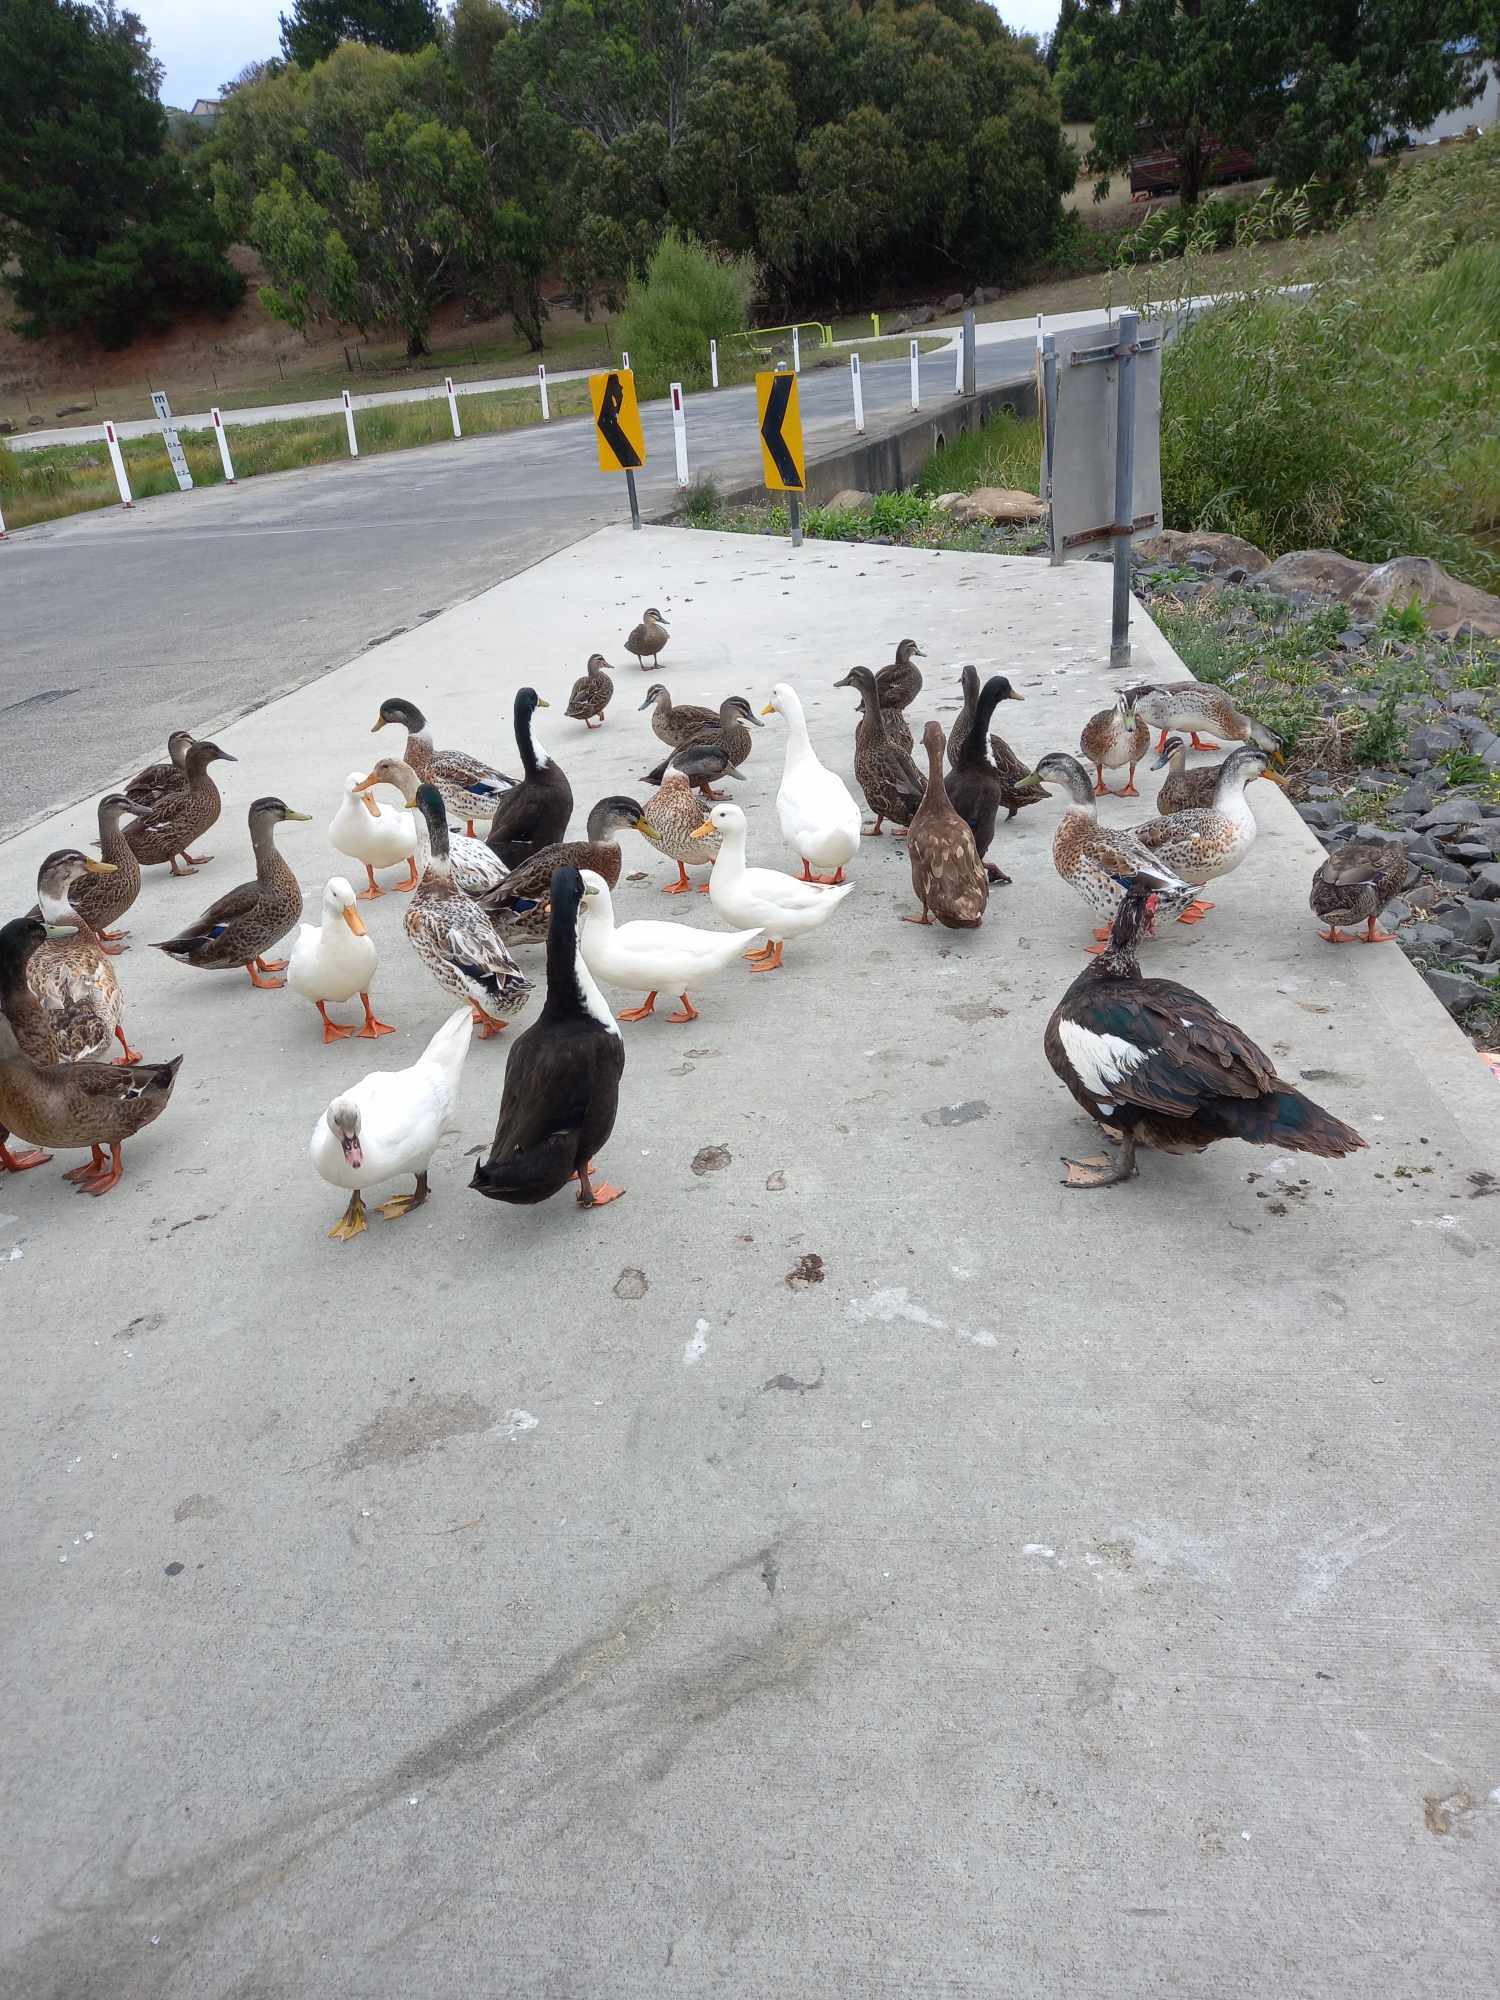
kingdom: Animalia
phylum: Chordata
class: Aves
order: Anseriformes
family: Anatidae
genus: Anas
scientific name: Anas
